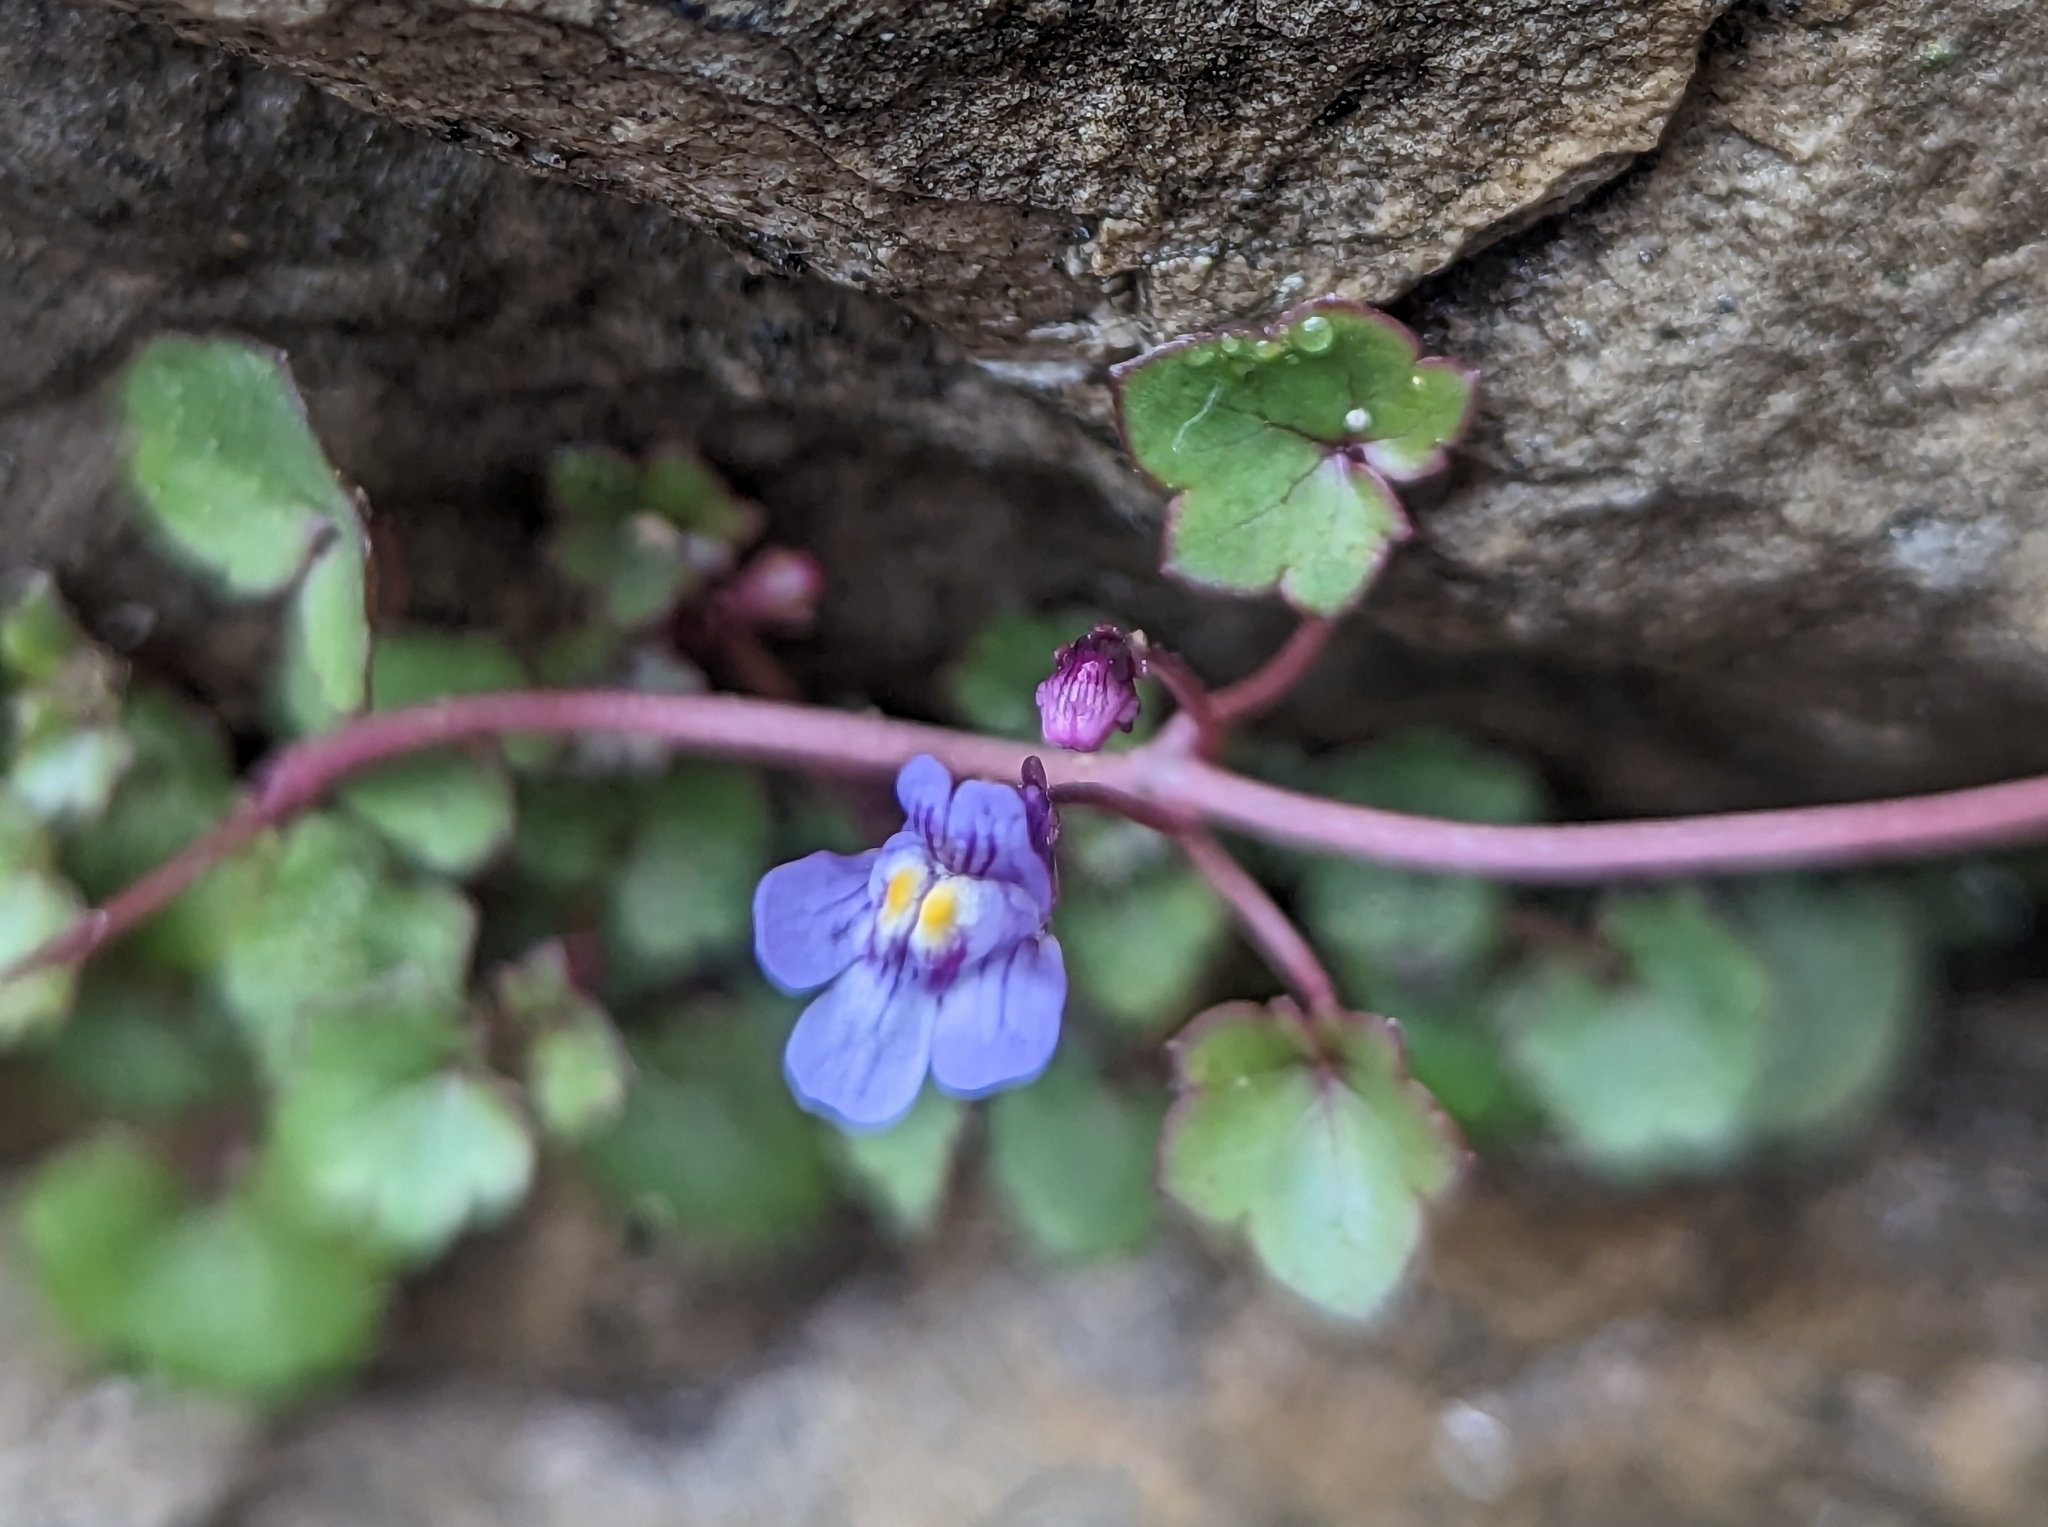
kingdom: Plantae
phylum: Tracheophyta
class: Magnoliopsida
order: Lamiales
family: Plantaginaceae
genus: Cymbalaria
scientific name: Cymbalaria muralis
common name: Ivy-leaved toadflax
